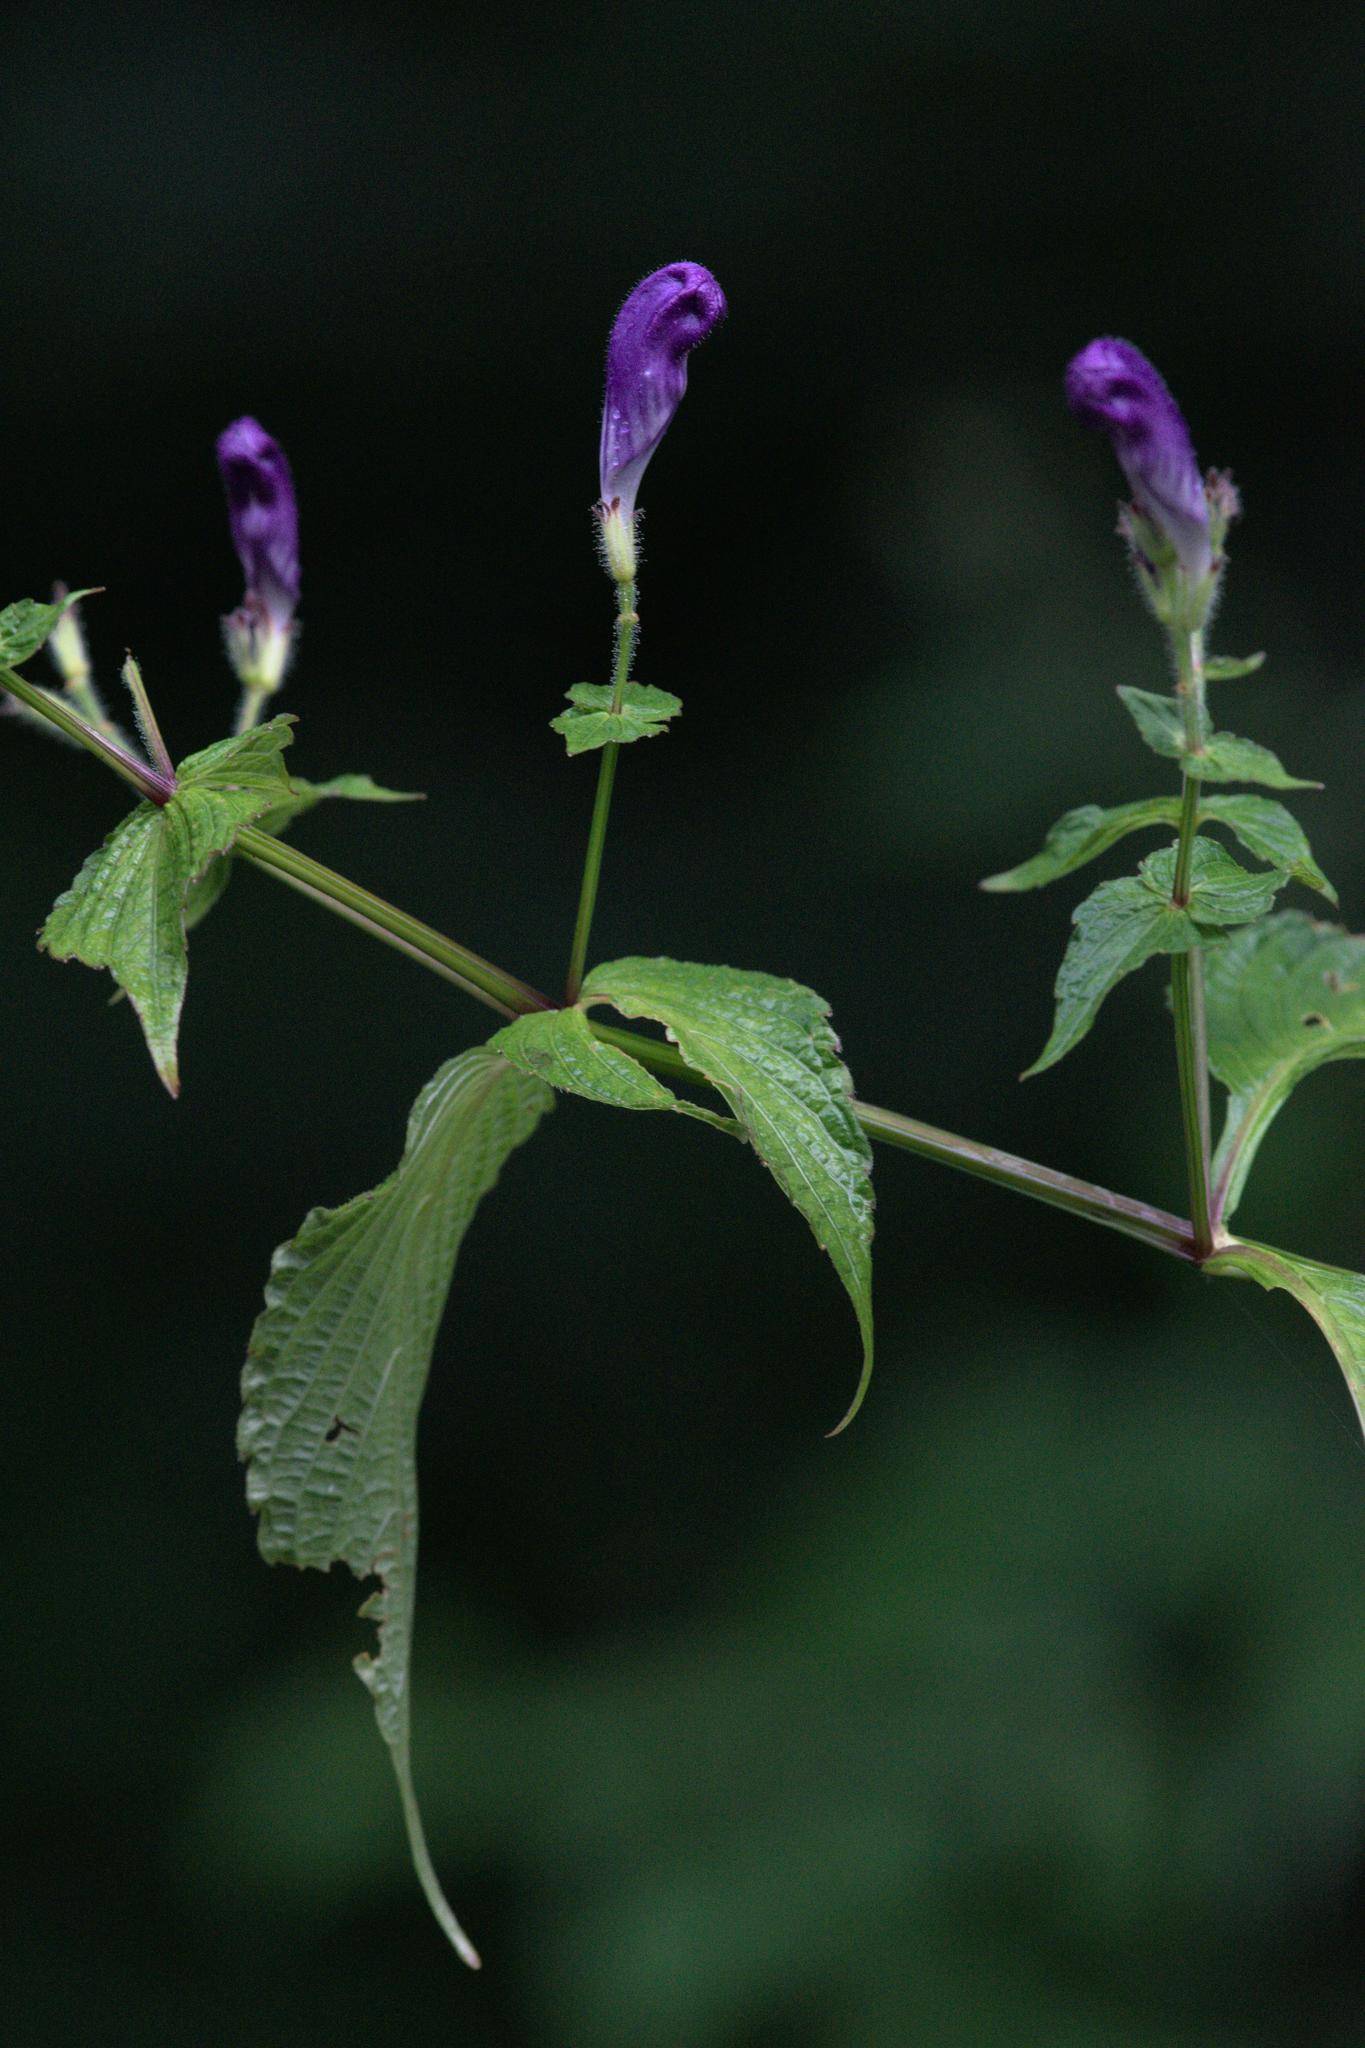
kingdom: Plantae
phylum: Tracheophyta
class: Magnoliopsida
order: Lamiales
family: Acanthaceae
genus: Strobilanthes
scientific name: Strobilanthes atropurpurea
